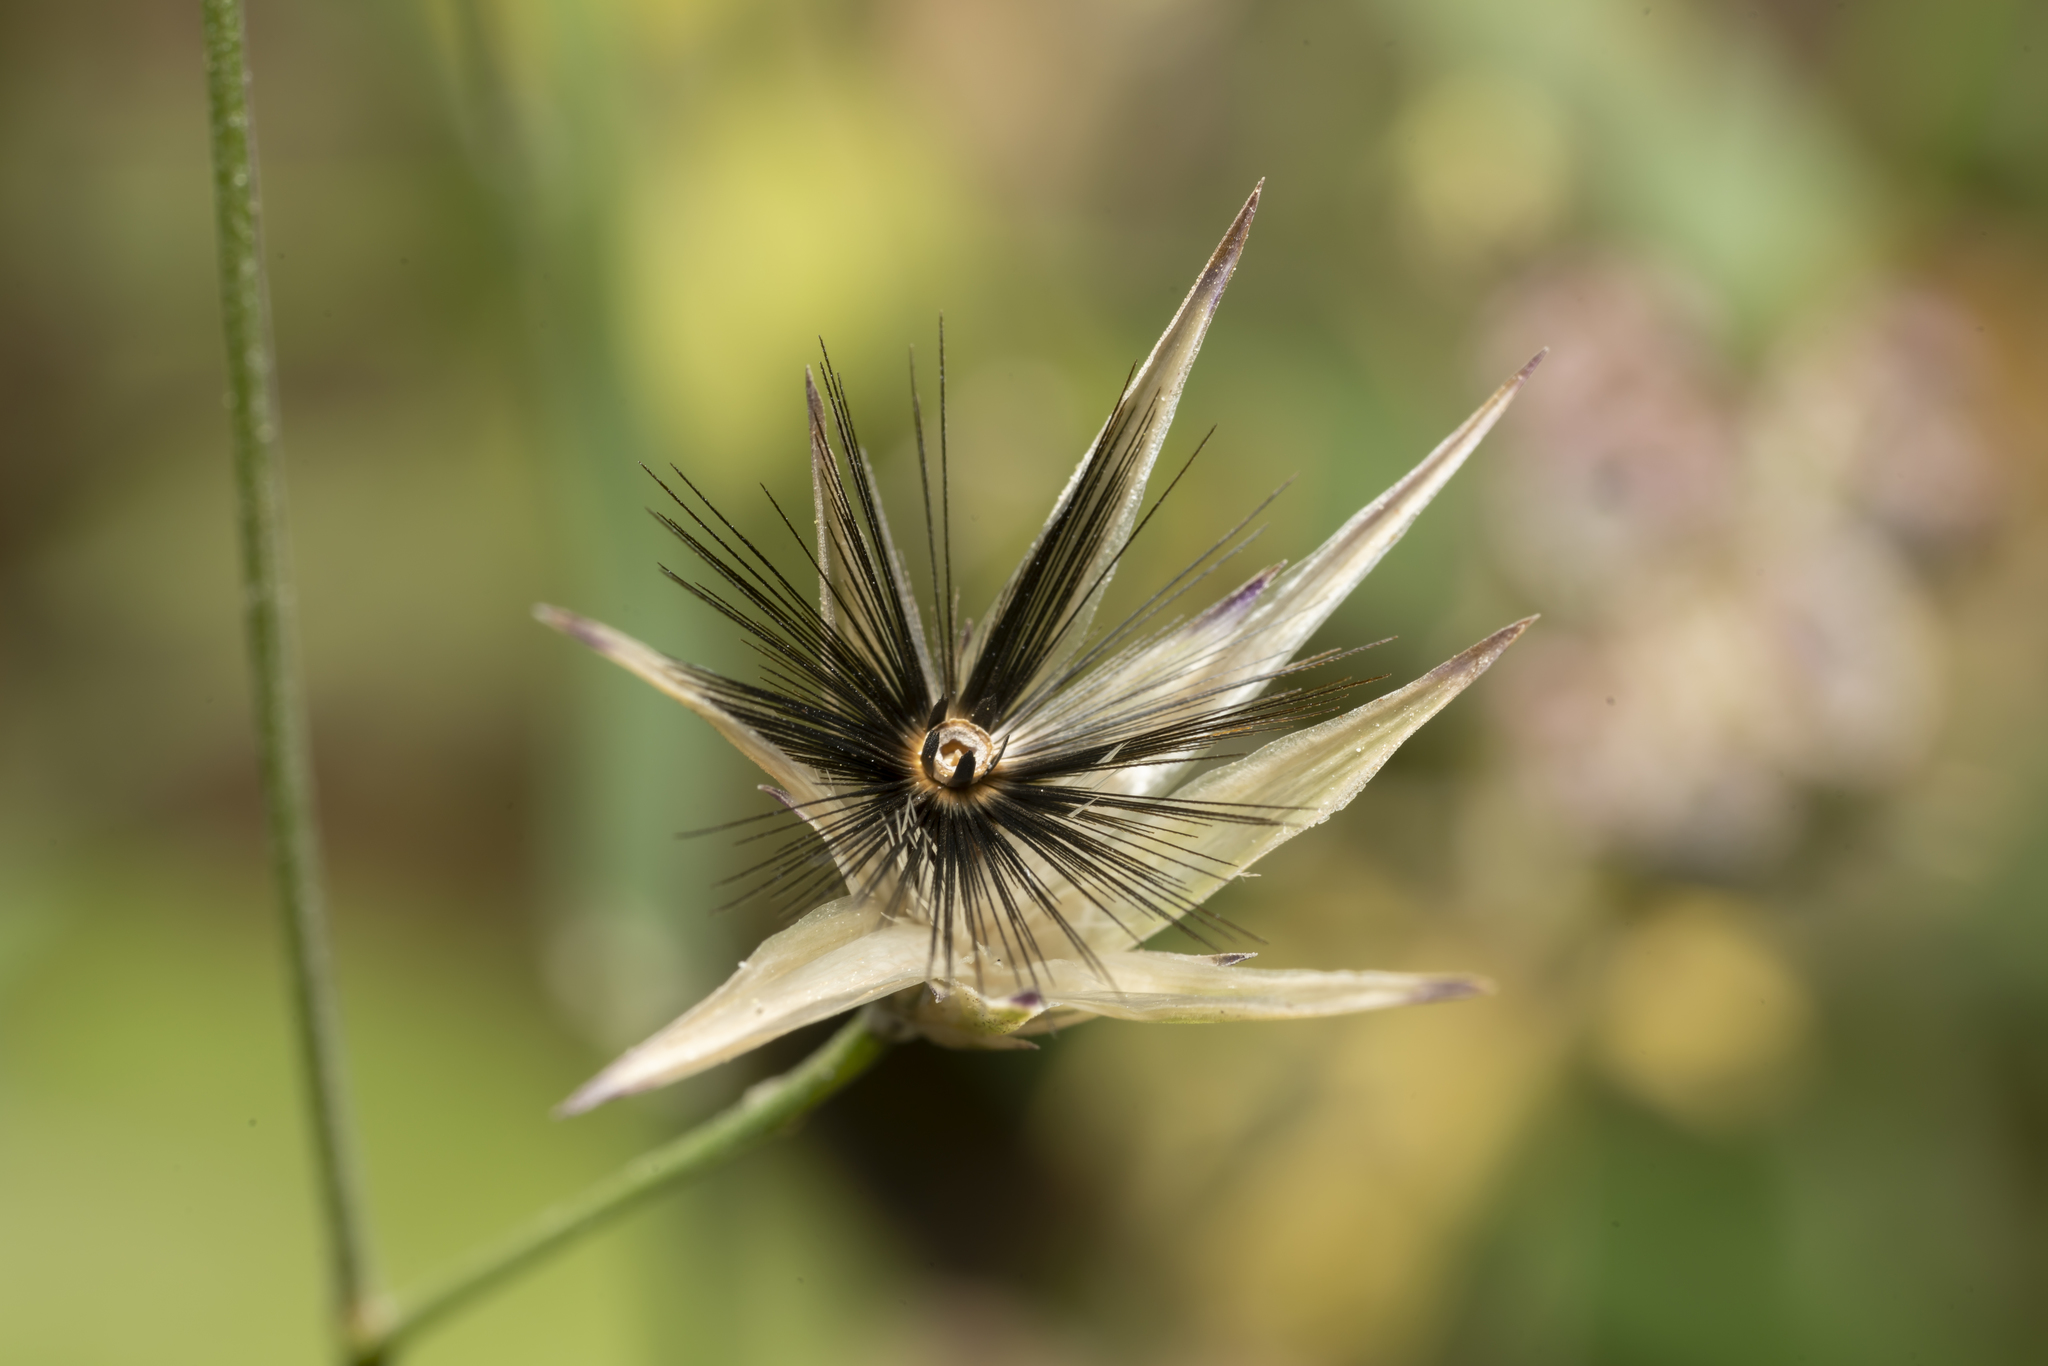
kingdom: Plantae
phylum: Tracheophyta
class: Magnoliopsida
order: Asterales
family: Asteraceae
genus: Crupina
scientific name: Crupina crupinastrum
